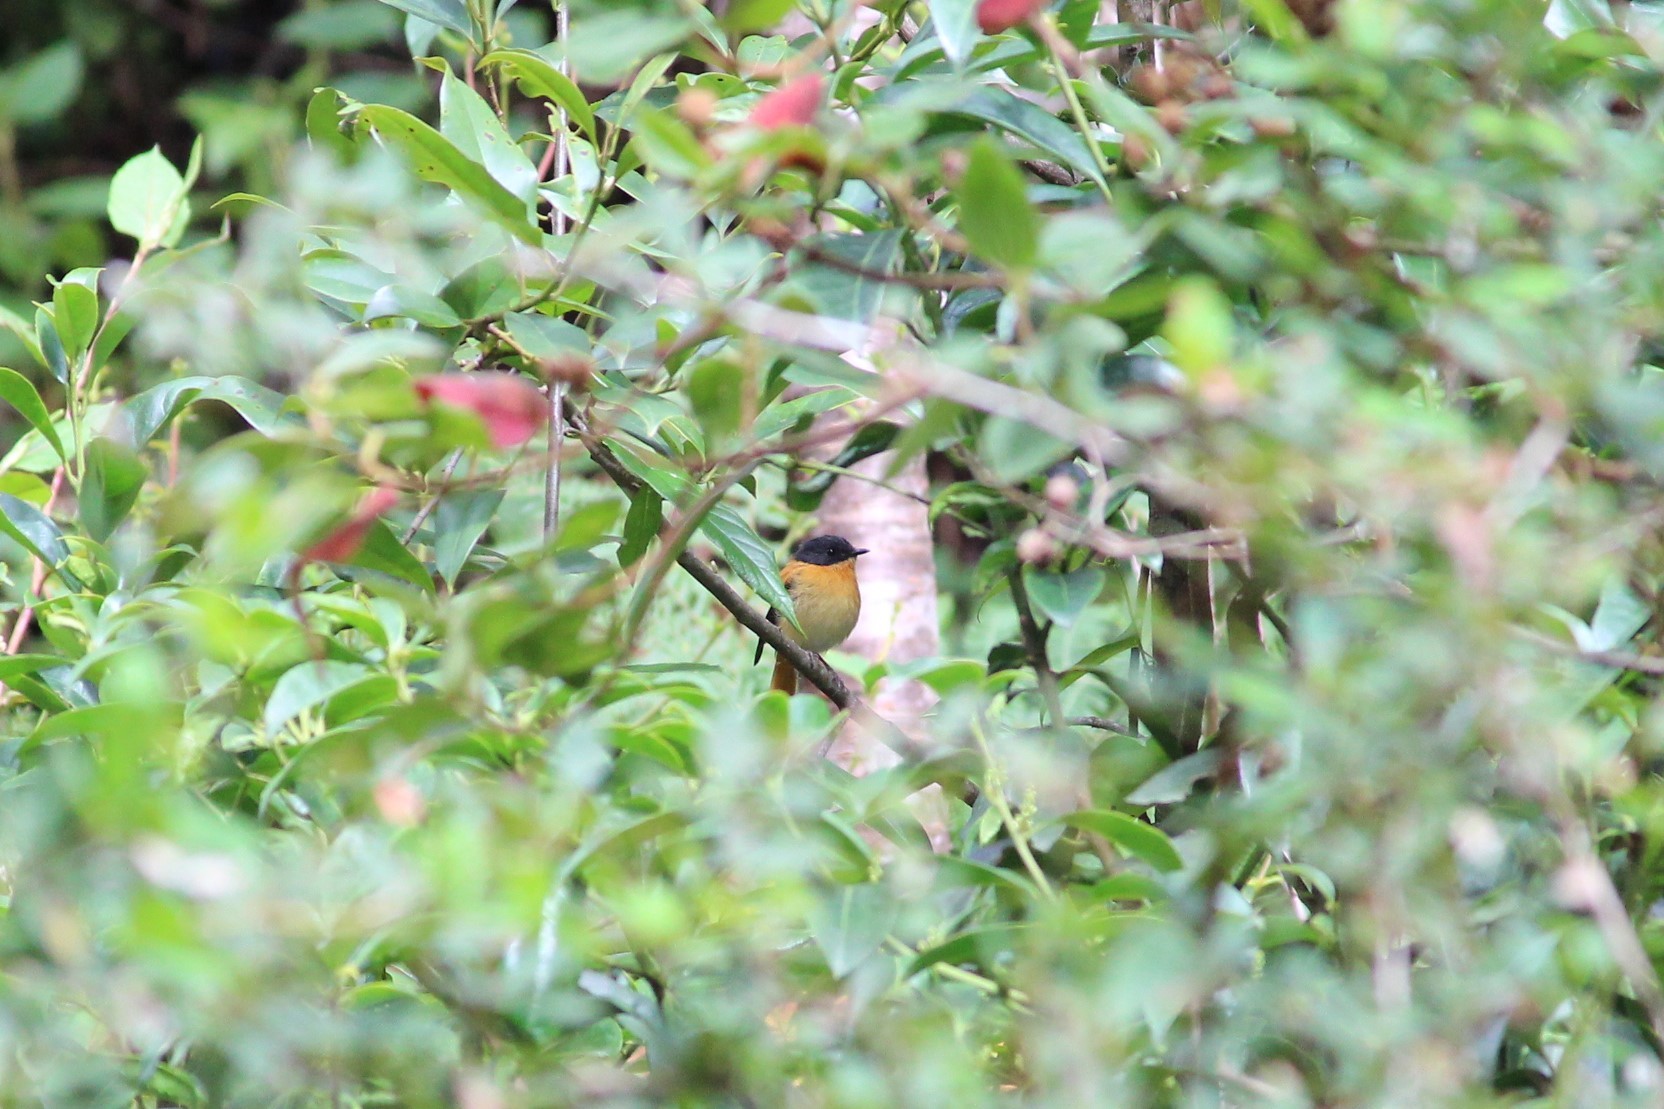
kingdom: Animalia
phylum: Chordata
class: Aves
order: Passeriformes
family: Muscicapidae
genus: Ficedula
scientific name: Ficedula nigrorufa
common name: Black-and-orange flycatcher
